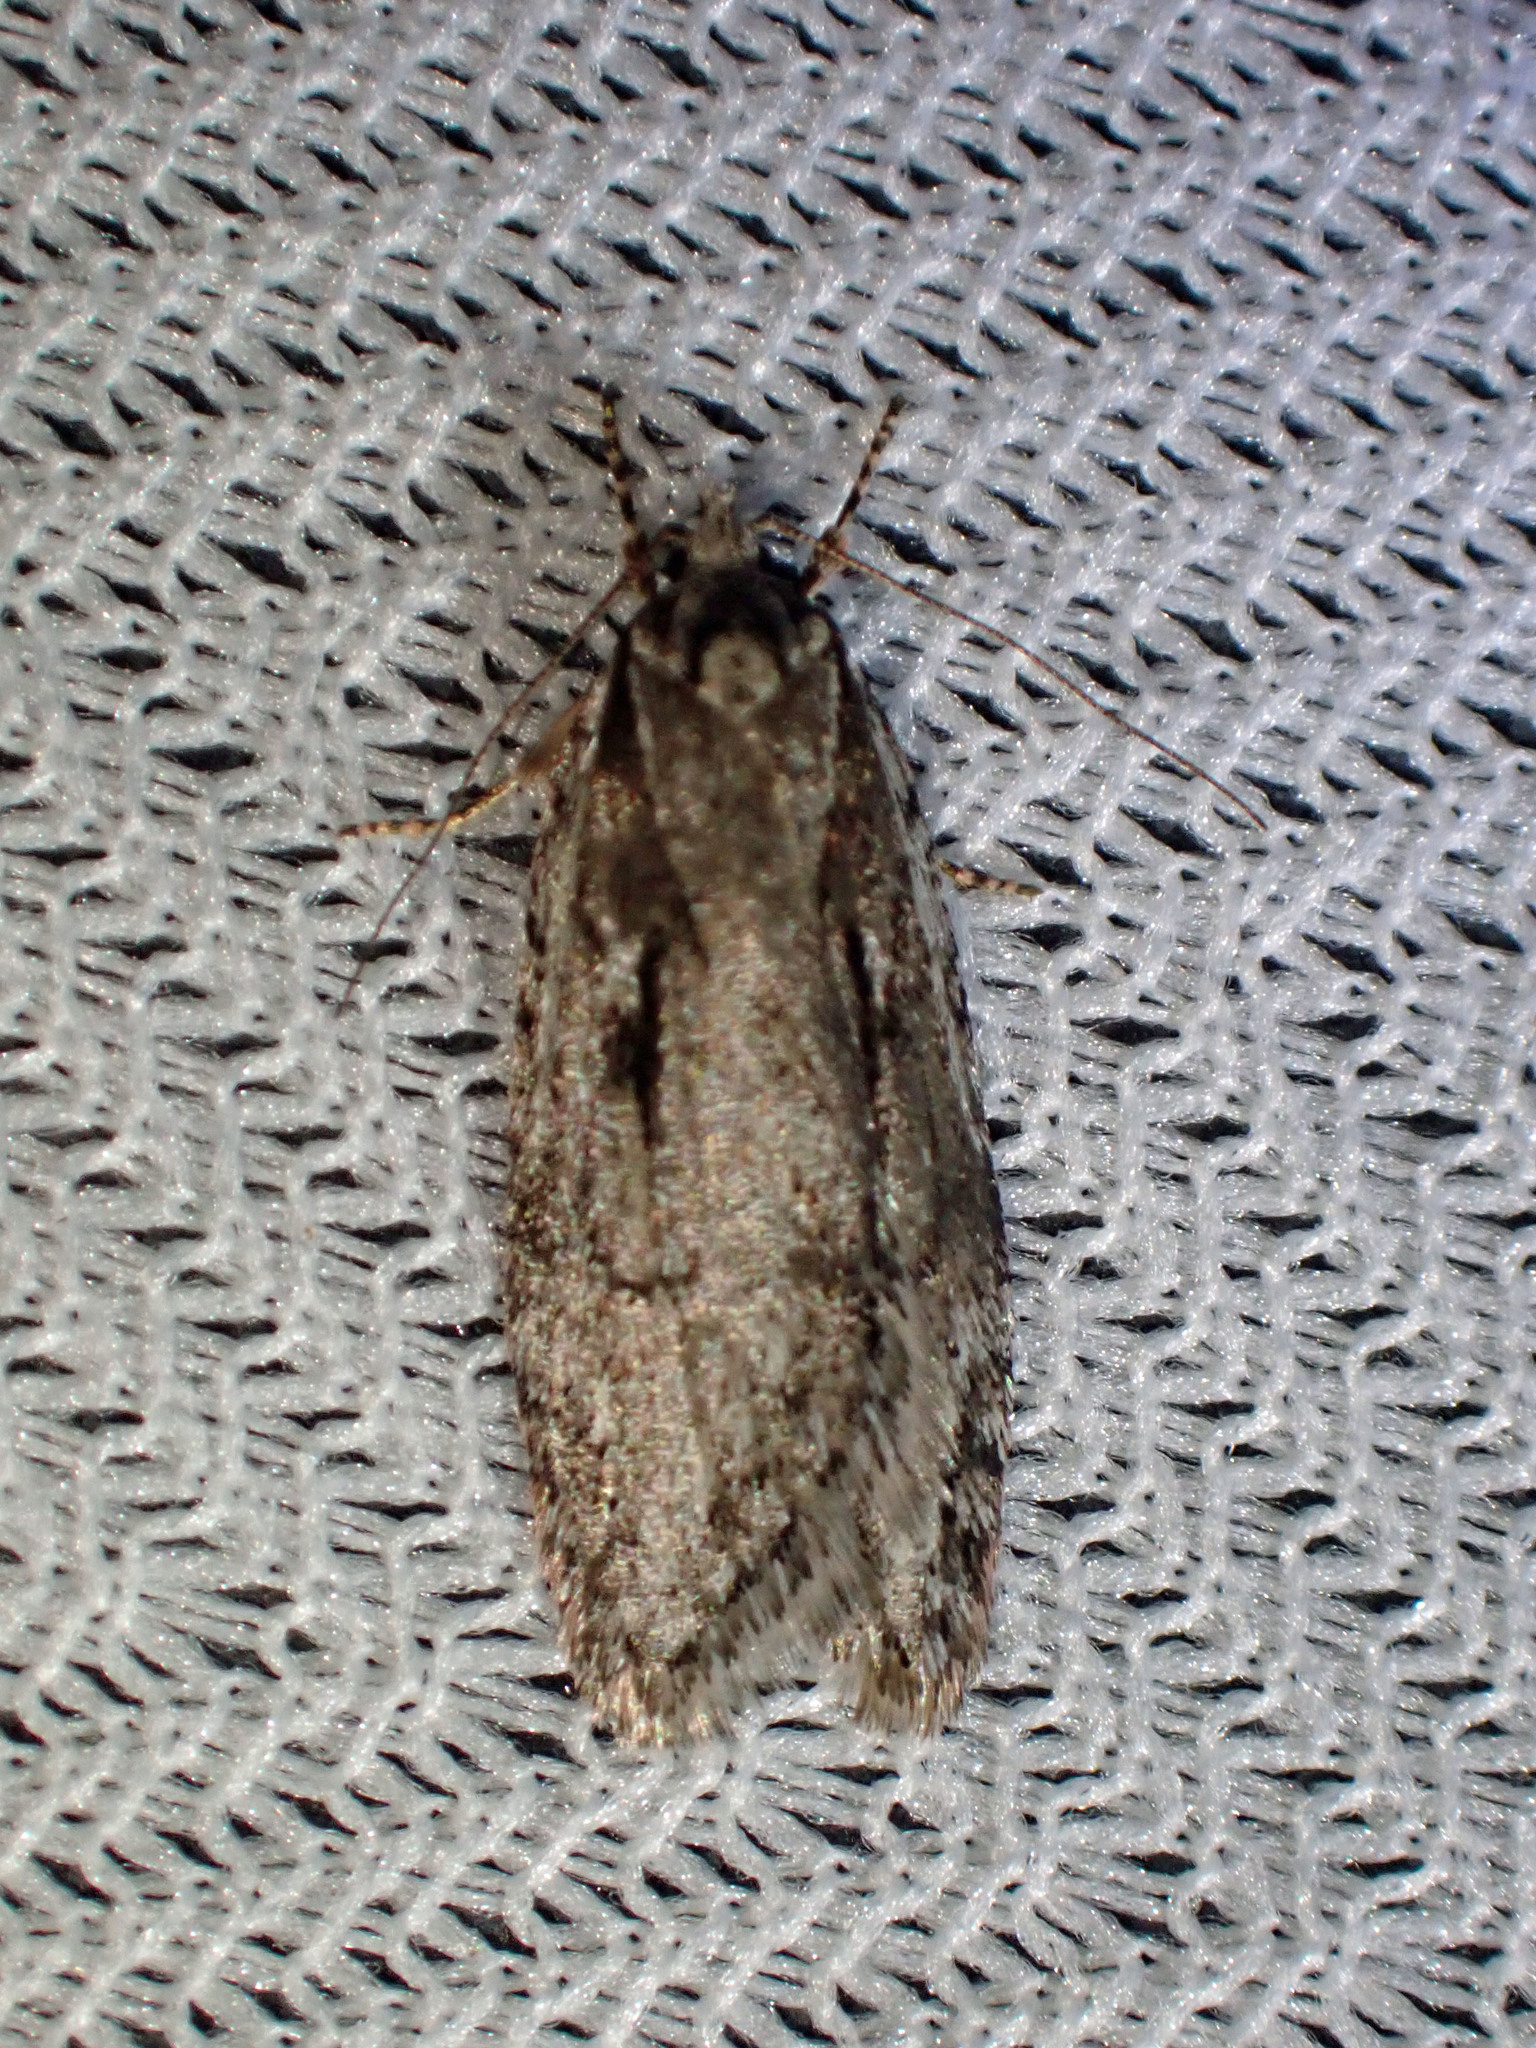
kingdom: Animalia
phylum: Arthropoda
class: Insecta
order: Lepidoptera
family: Depressariidae
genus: Semioscopis
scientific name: Semioscopis aurorella
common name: Aurora flatbody moth
